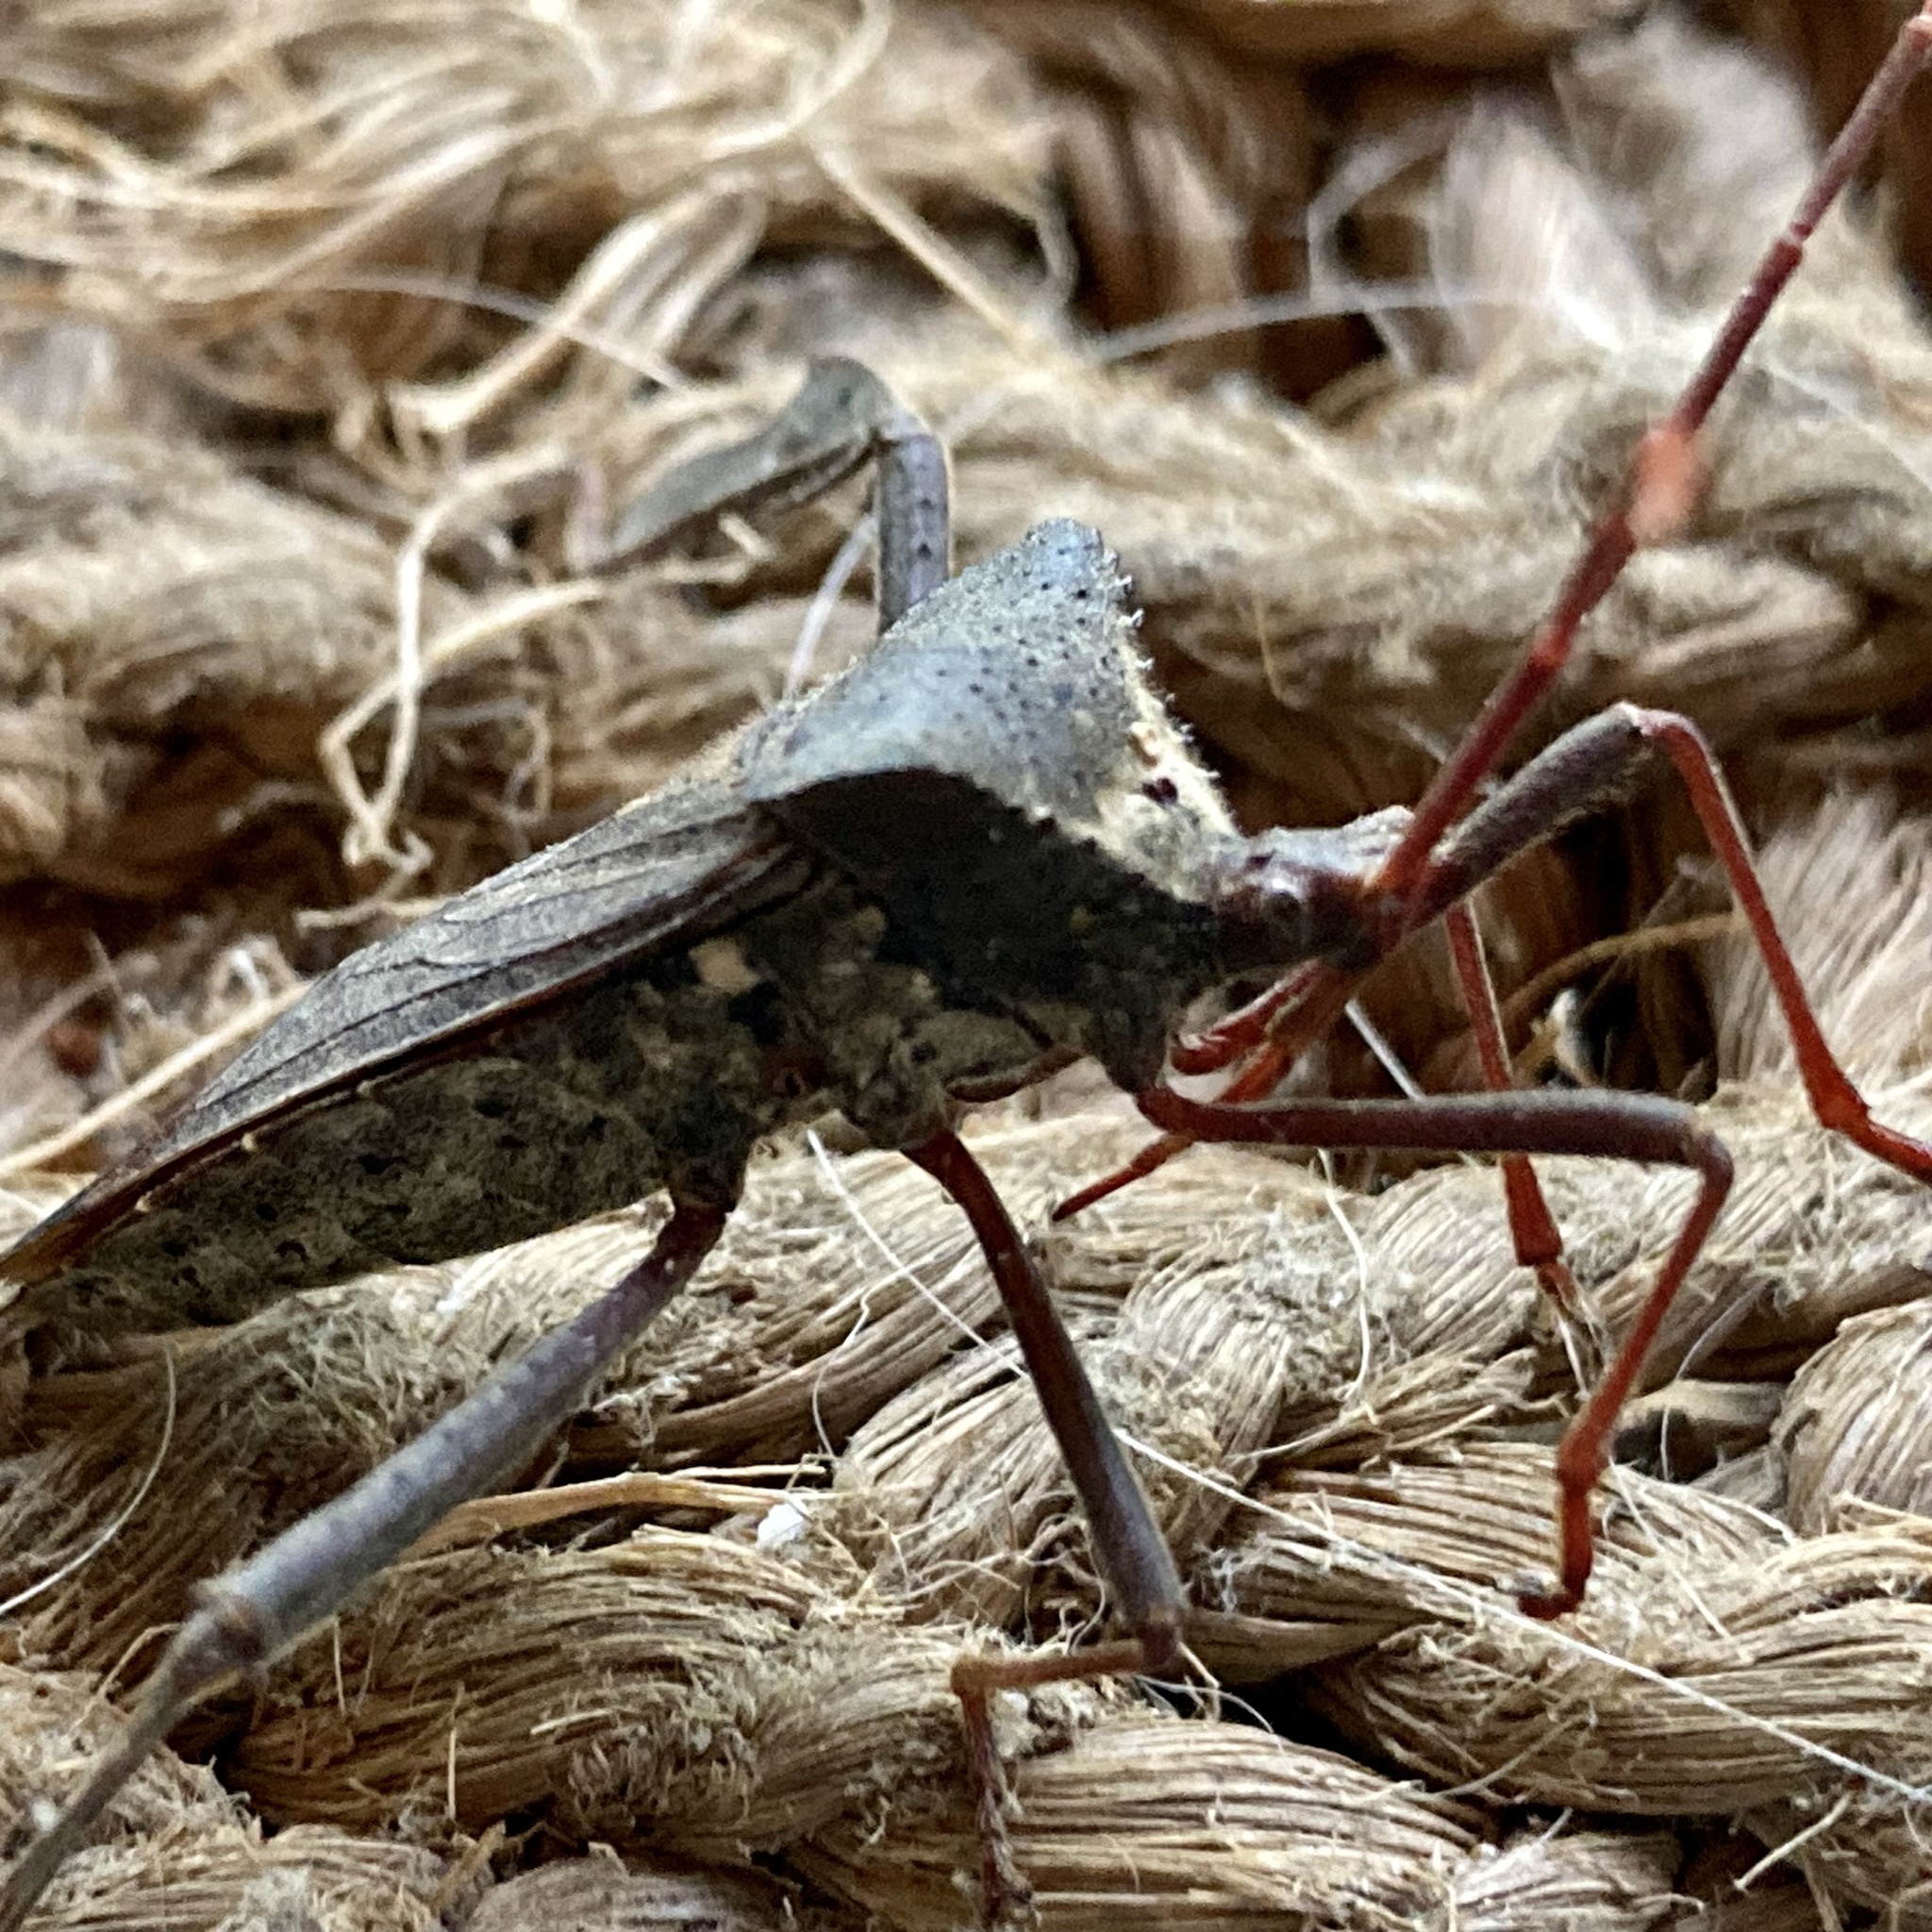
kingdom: Animalia
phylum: Arthropoda
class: Insecta
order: Hemiptera
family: Coreidae
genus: Acanthocephala
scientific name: Acanthocephala declivis
